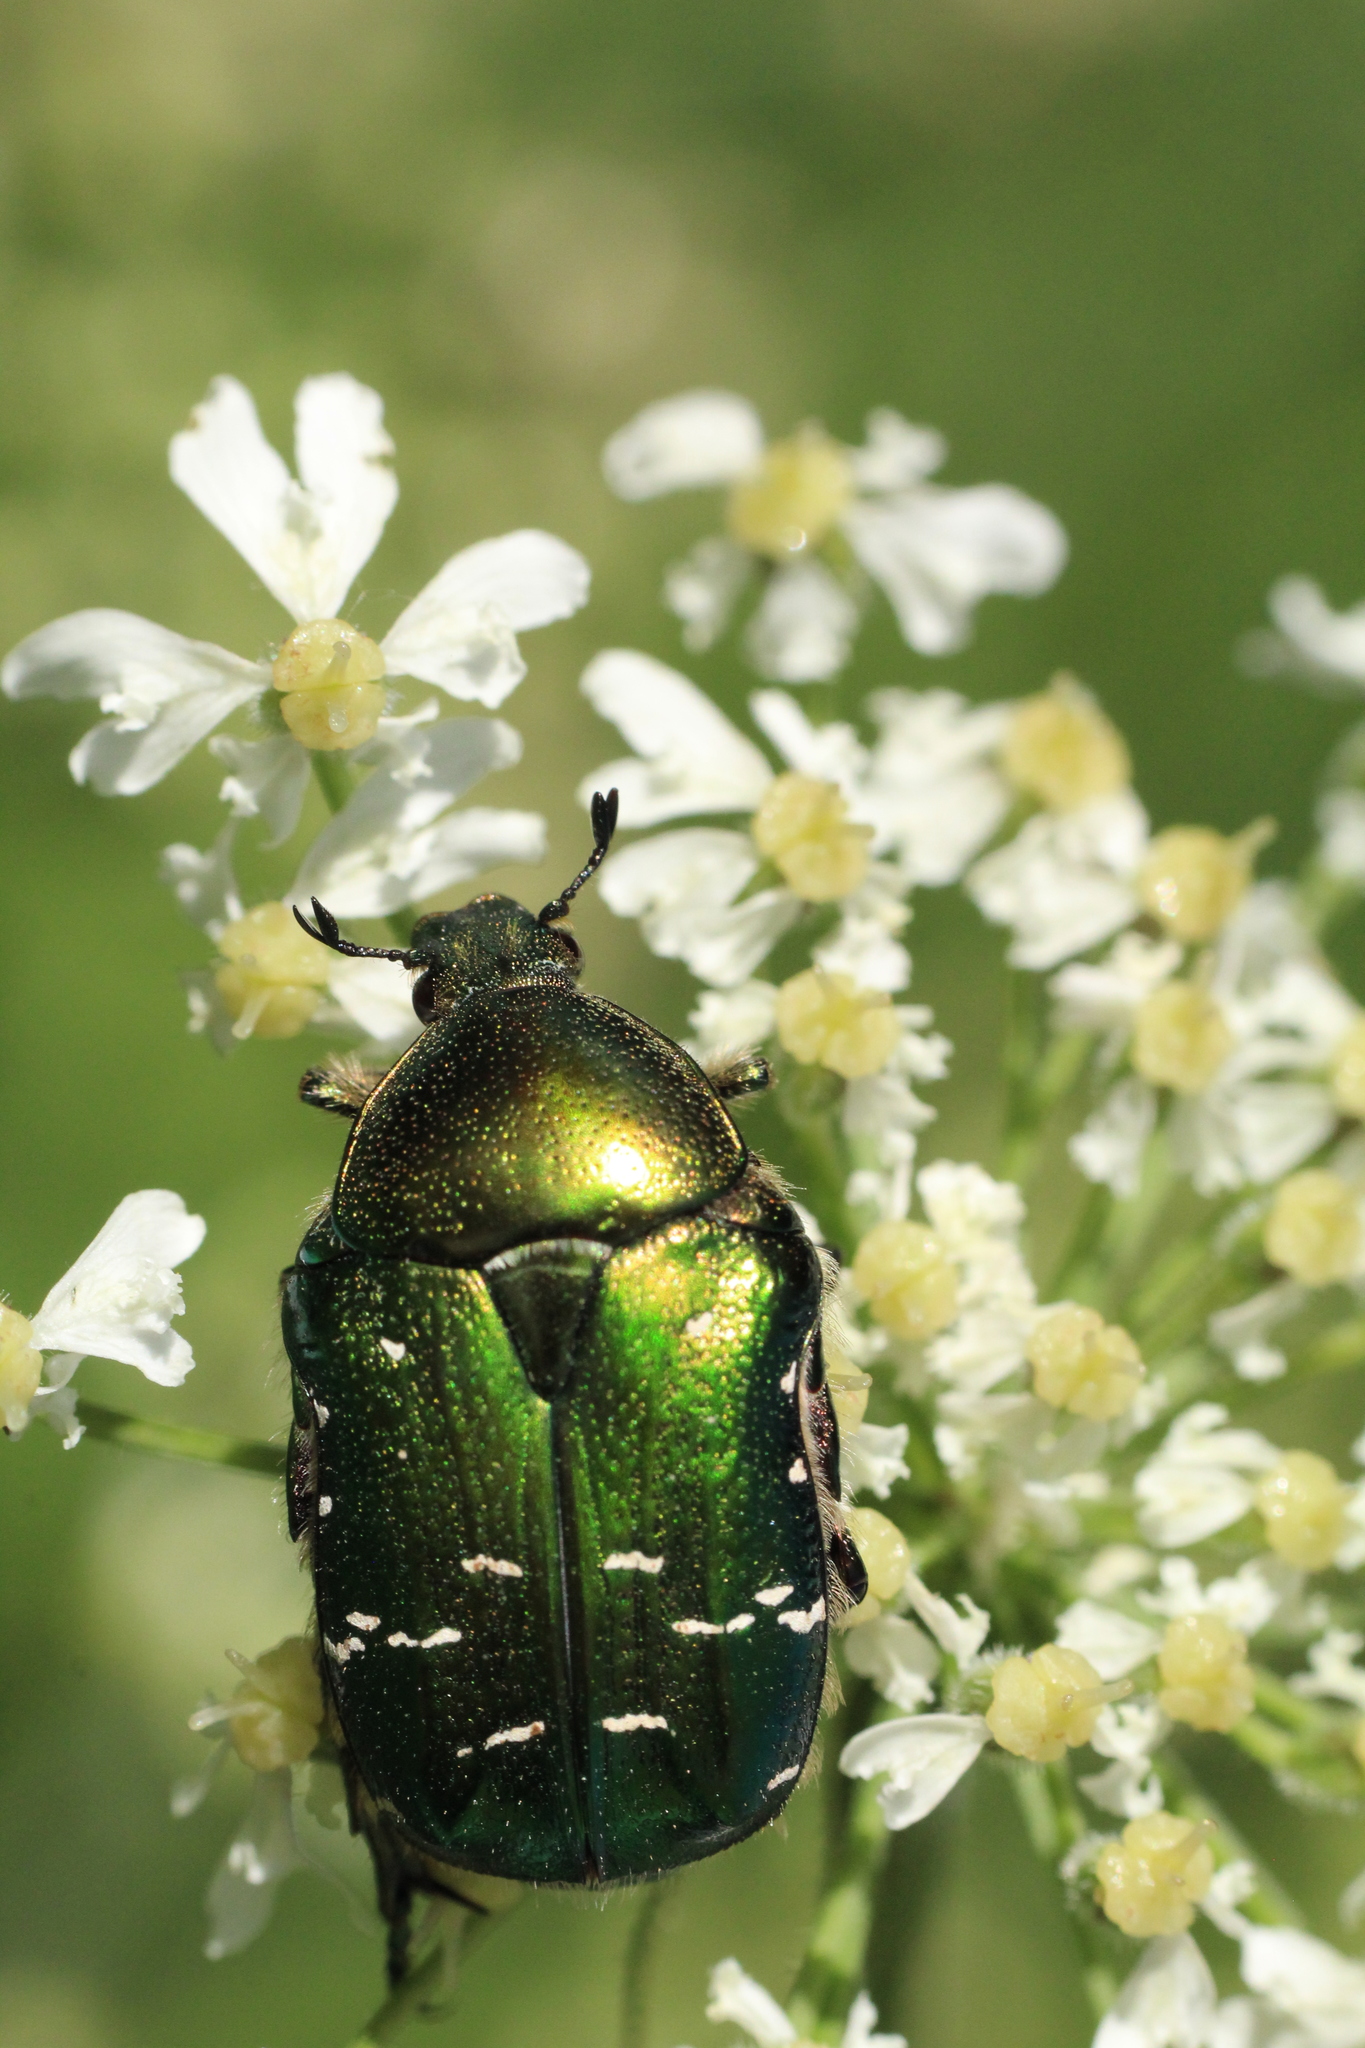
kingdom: Animalia
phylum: Arthropoda
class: Insecta
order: Coleoptera
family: Scarabaeidae
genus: Cetonia
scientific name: Cetonia aurata
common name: Rose chafer
